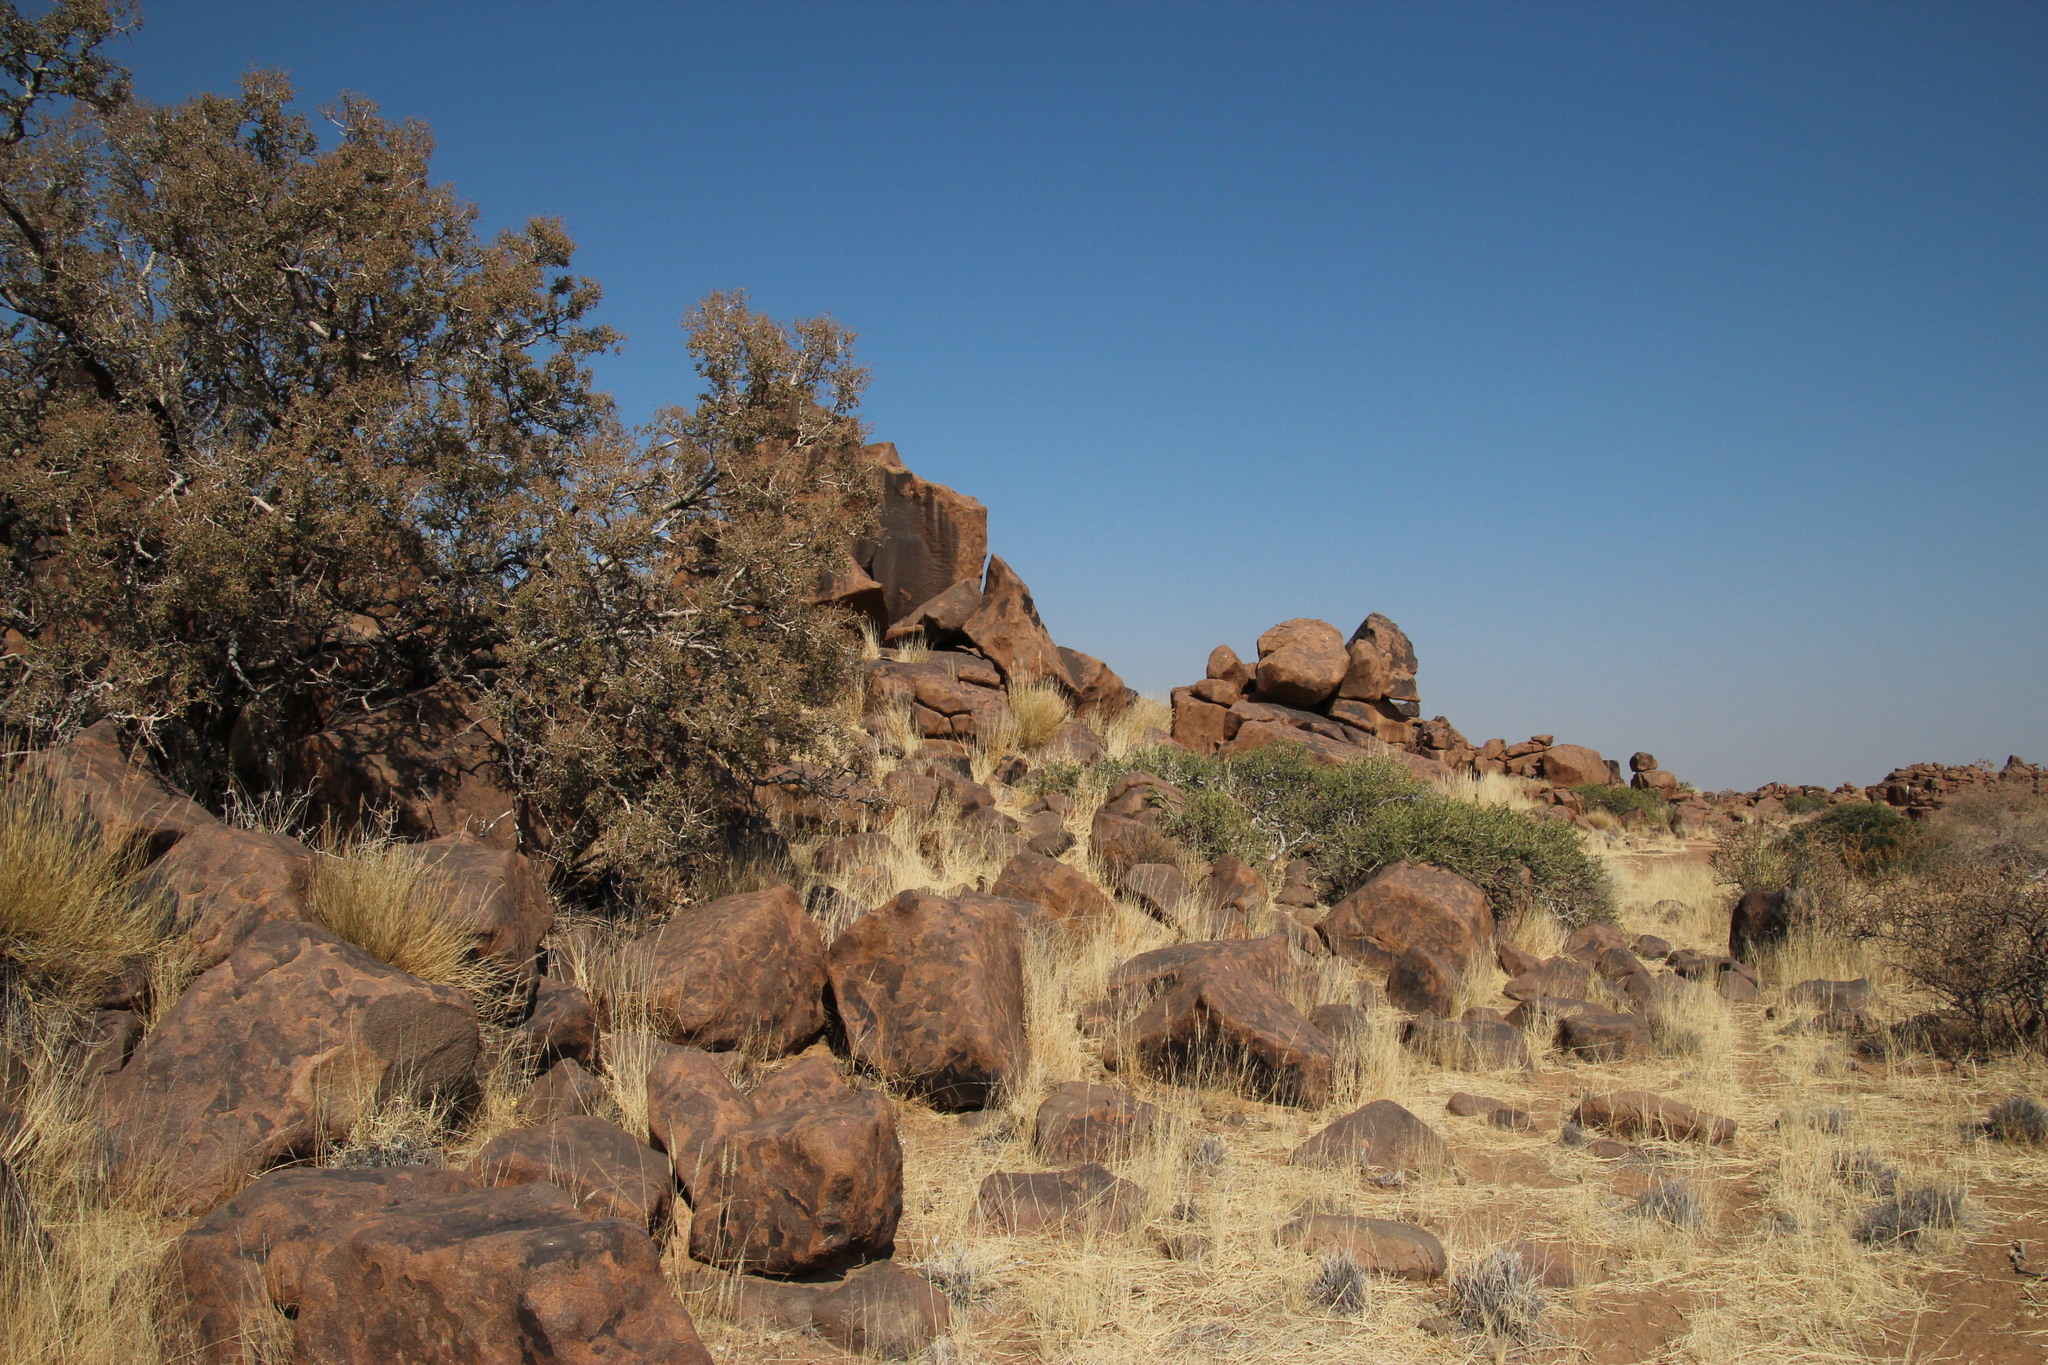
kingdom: Plantae
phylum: Tracheophyta
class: Magnoliopsida
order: Brassicales
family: Capparaceae
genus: Boscia
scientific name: Boscia albitrunca
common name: Caper bush
